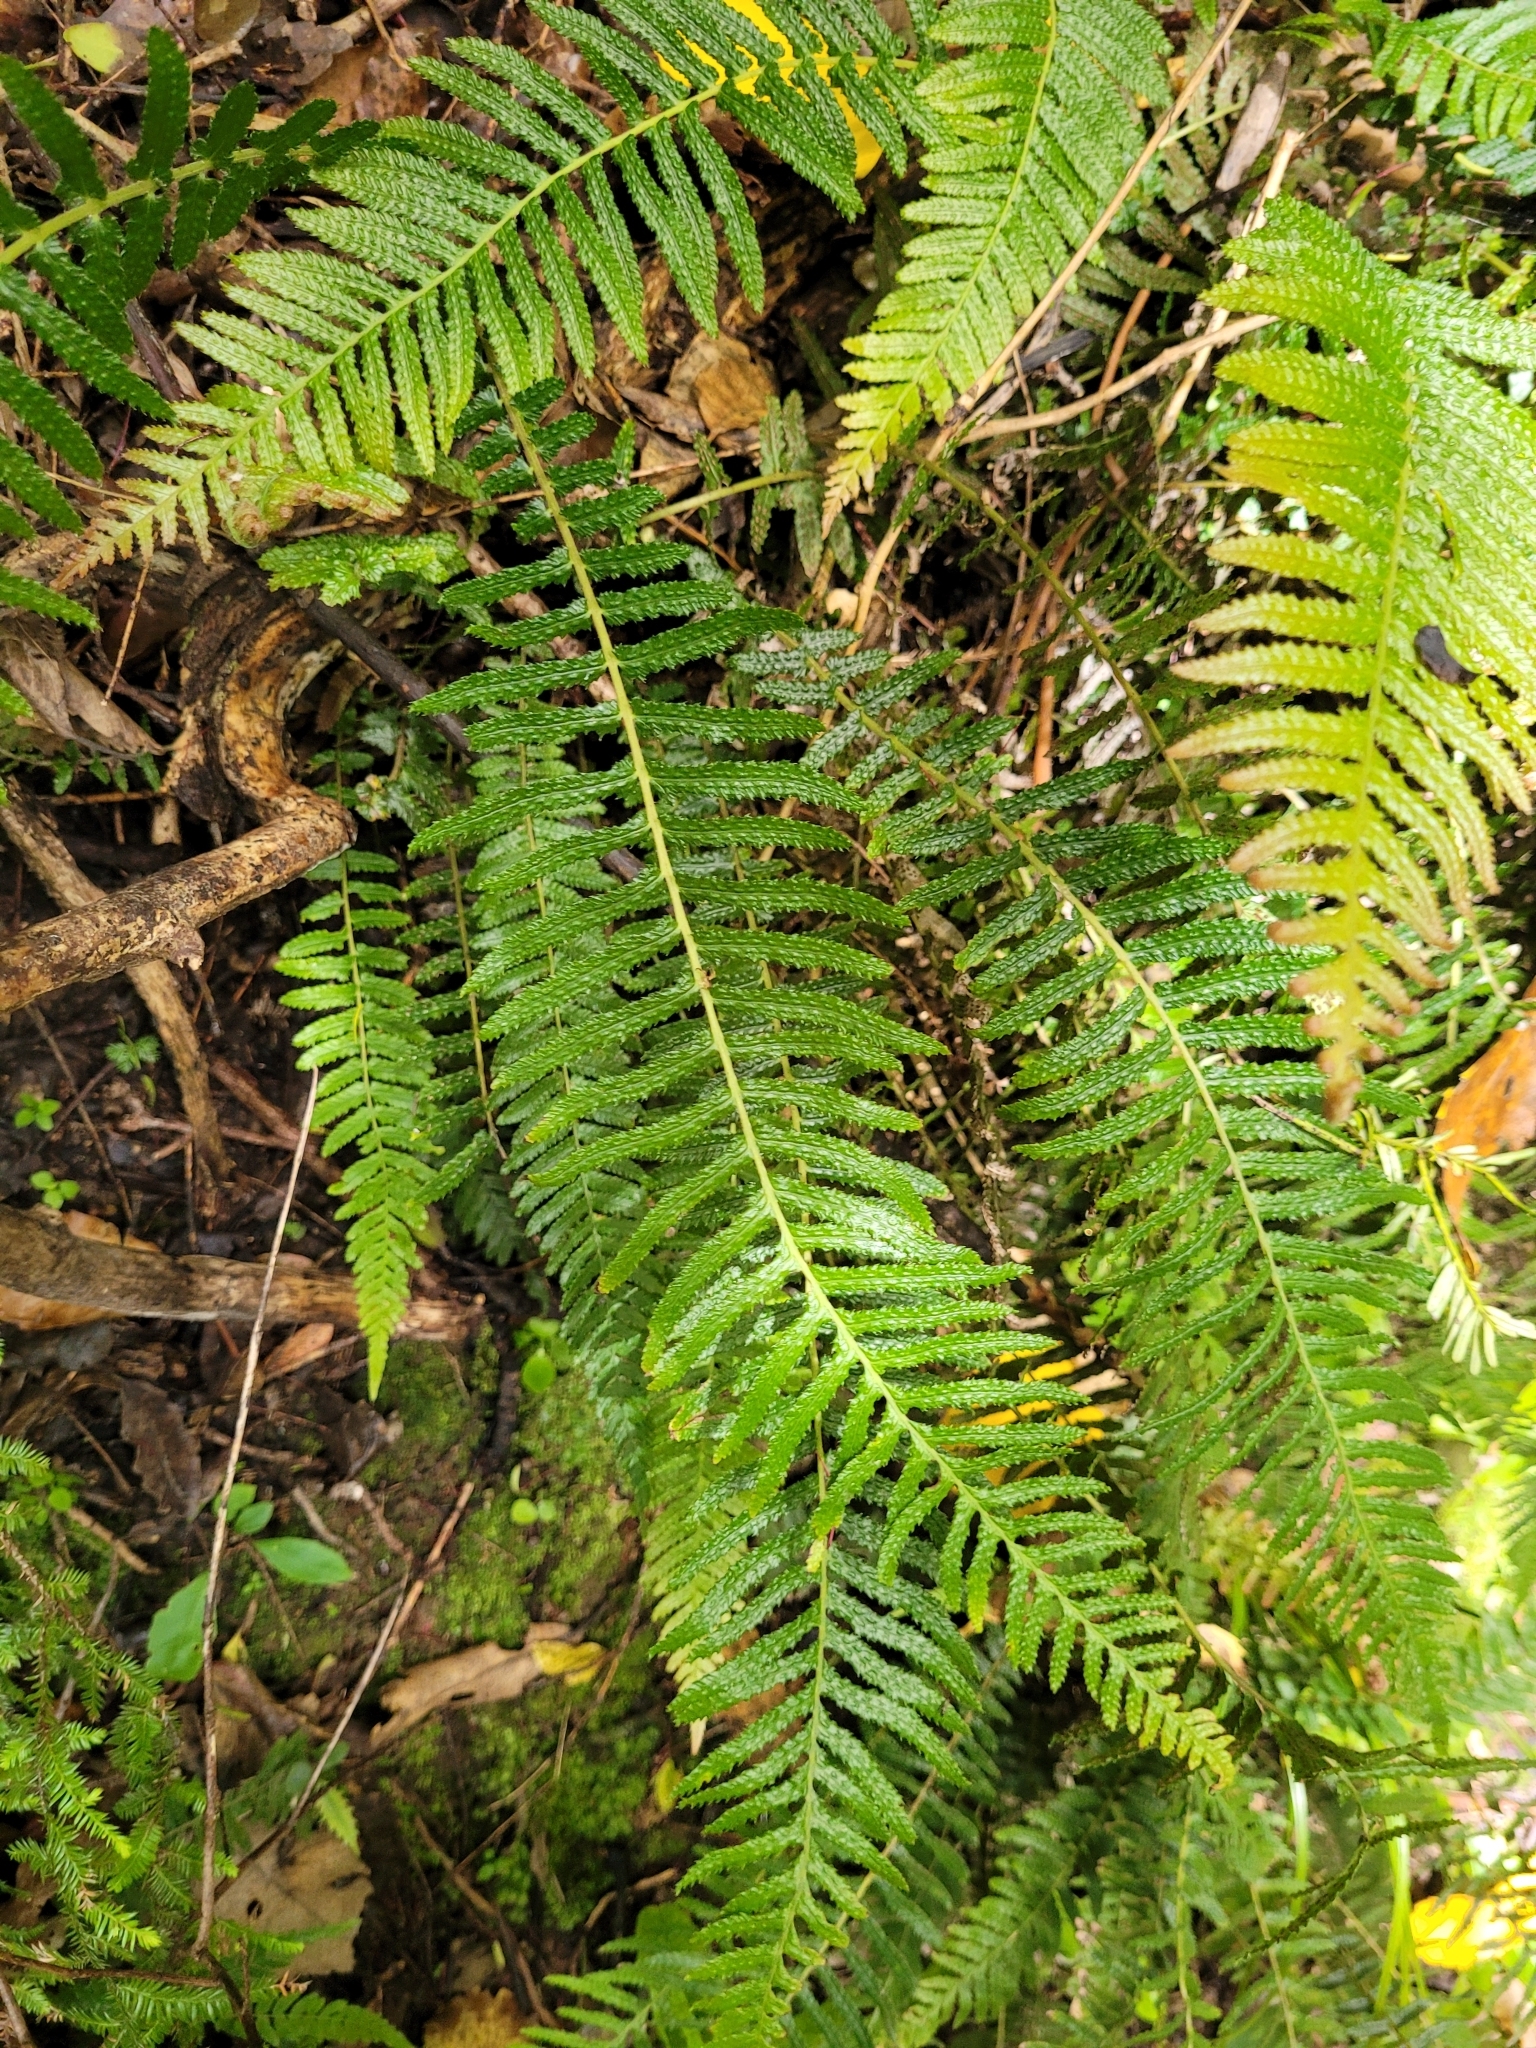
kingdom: Plantae
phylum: Tracheophyta
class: Polypodiopsida
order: Polypodiales
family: Blechnaceae
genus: Doodia
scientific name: Doodia australis
